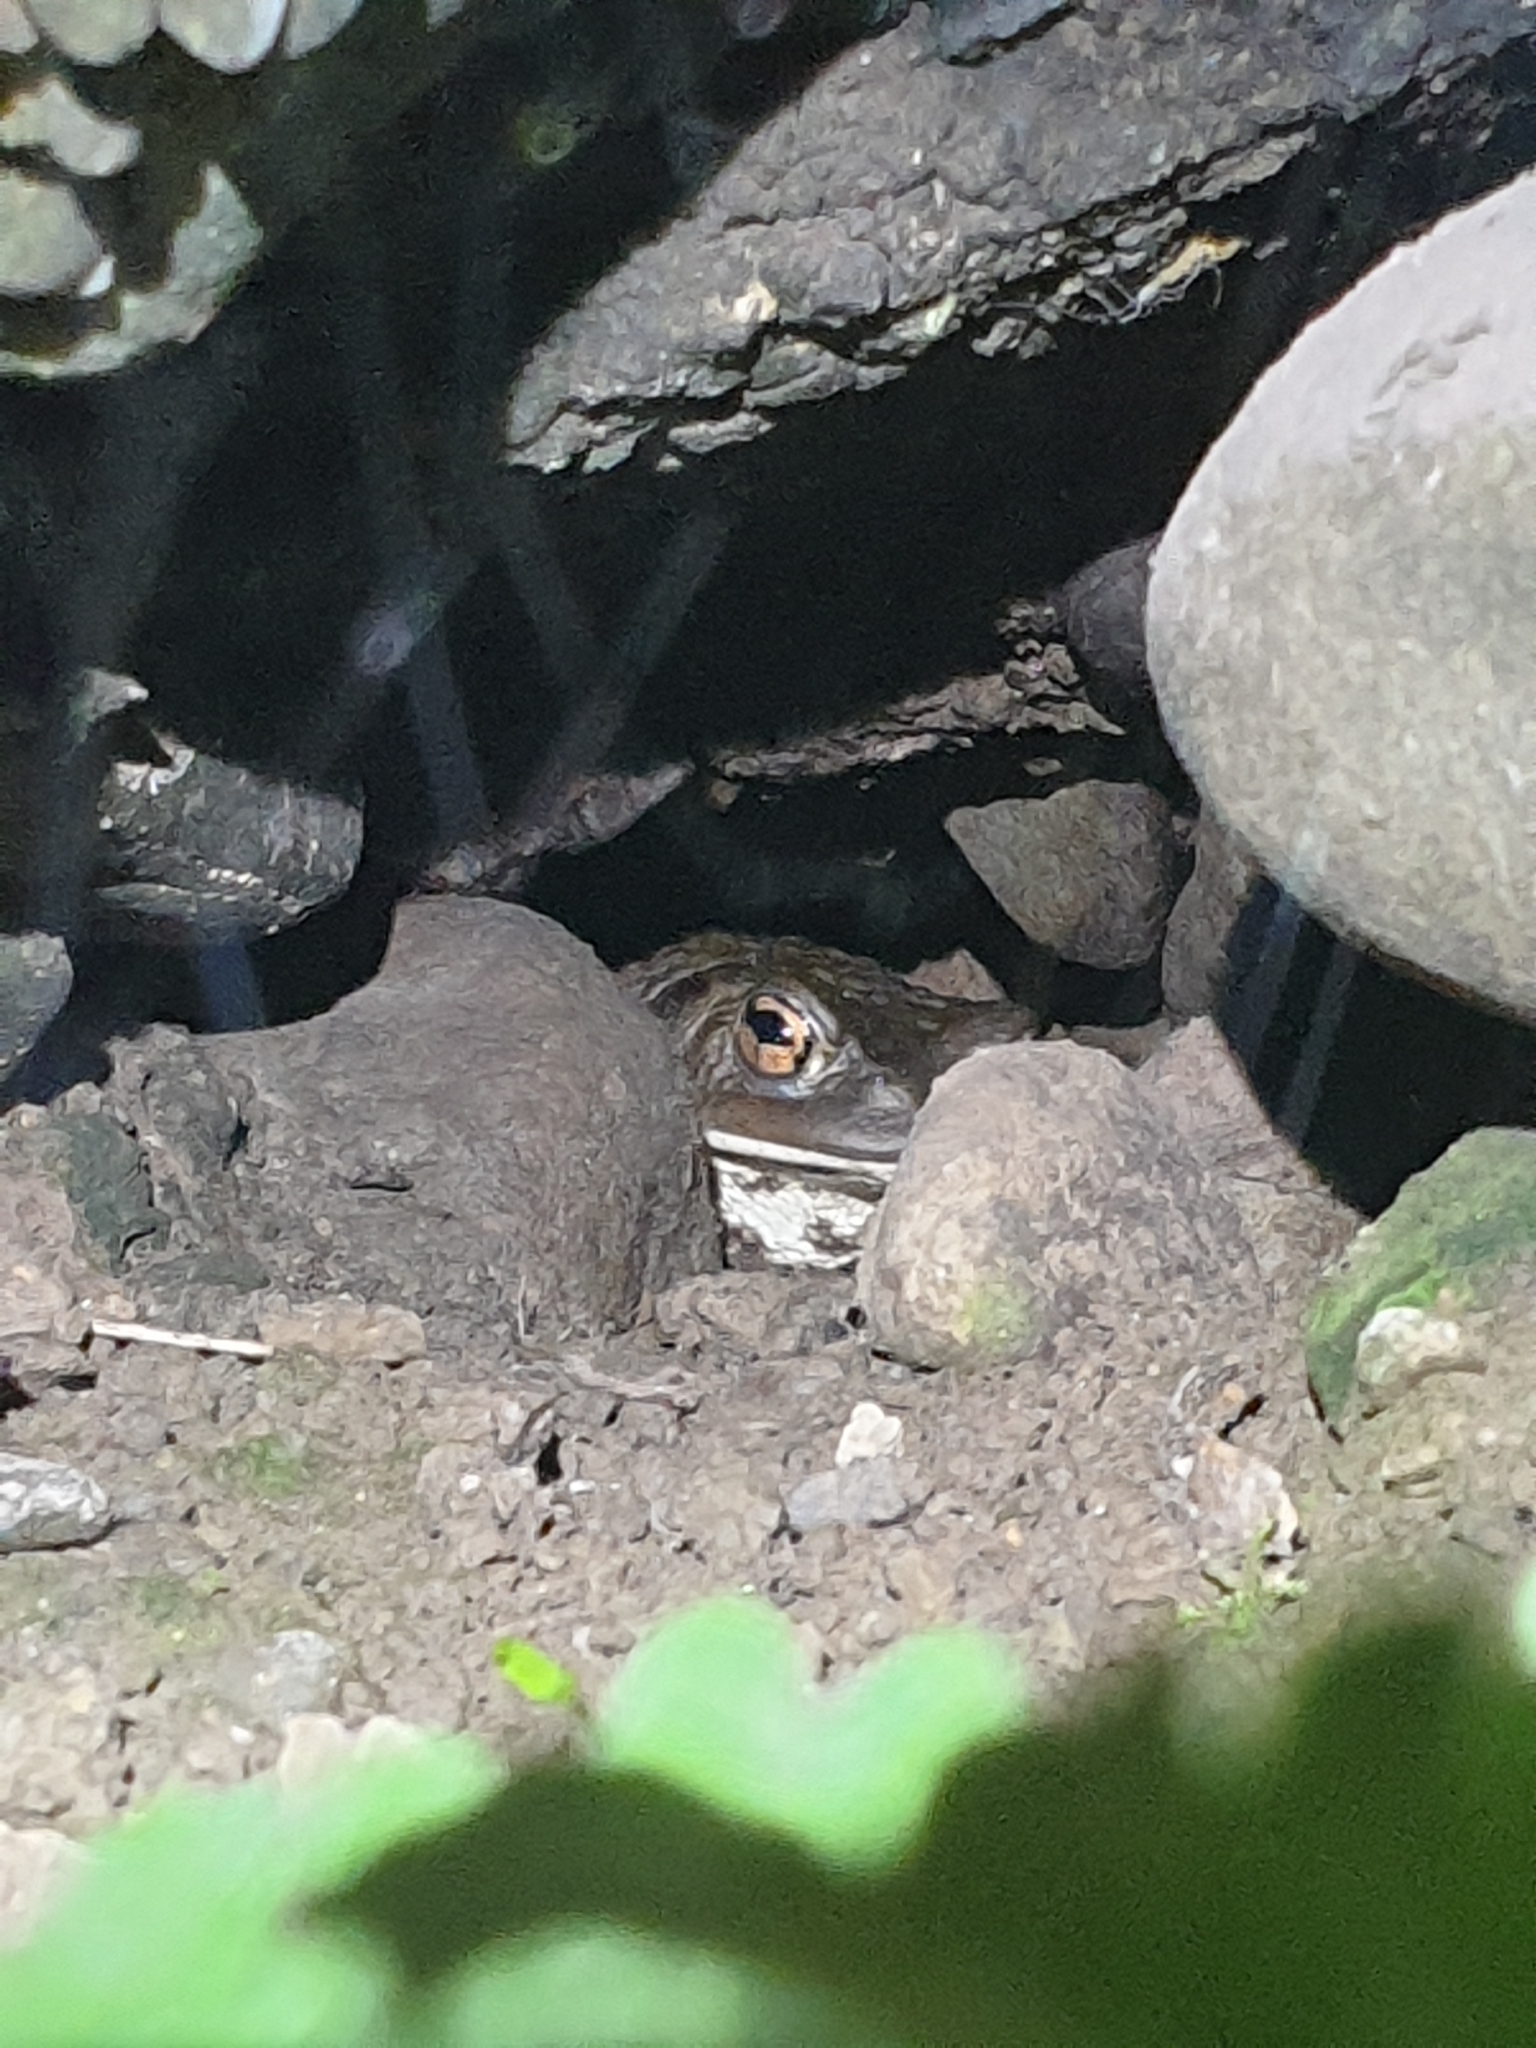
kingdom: Animalia
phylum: Chordata
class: Amphibia
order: Anura
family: Bufonidae
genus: Bufo
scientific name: Bufo bufo
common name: Common toad
